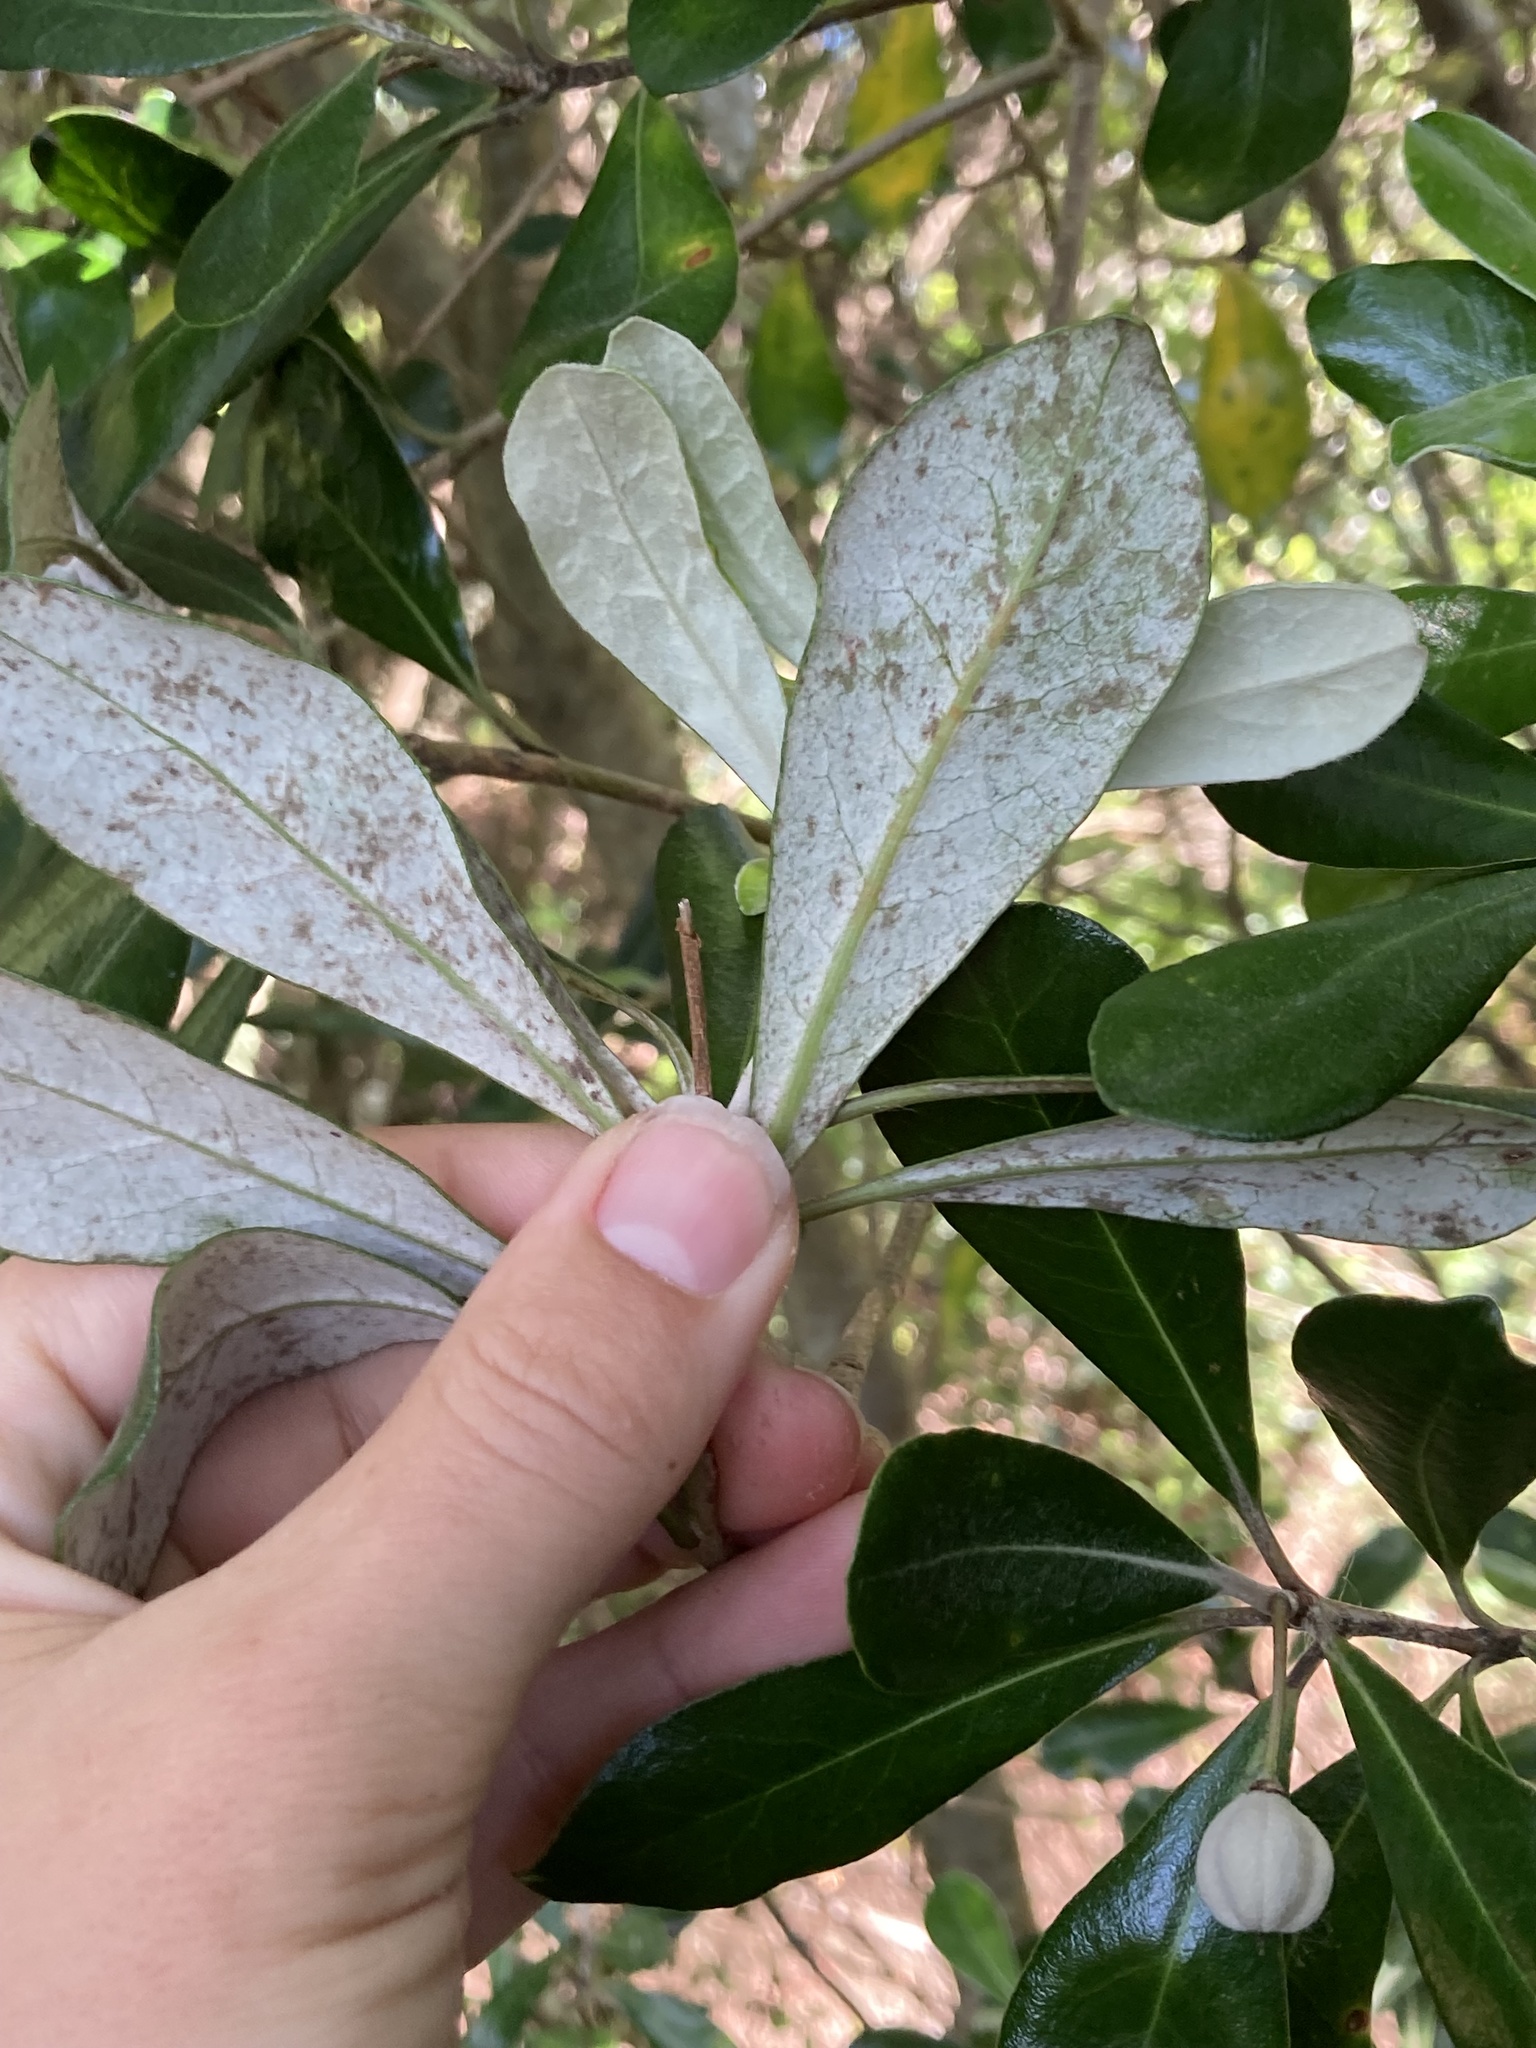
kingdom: Plantae
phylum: Tracheophyta
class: Magnoliopsida
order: Apiales
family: Pittosporaceae
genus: Pittosporum
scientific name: Pittosporum crassifolium
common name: Karo
